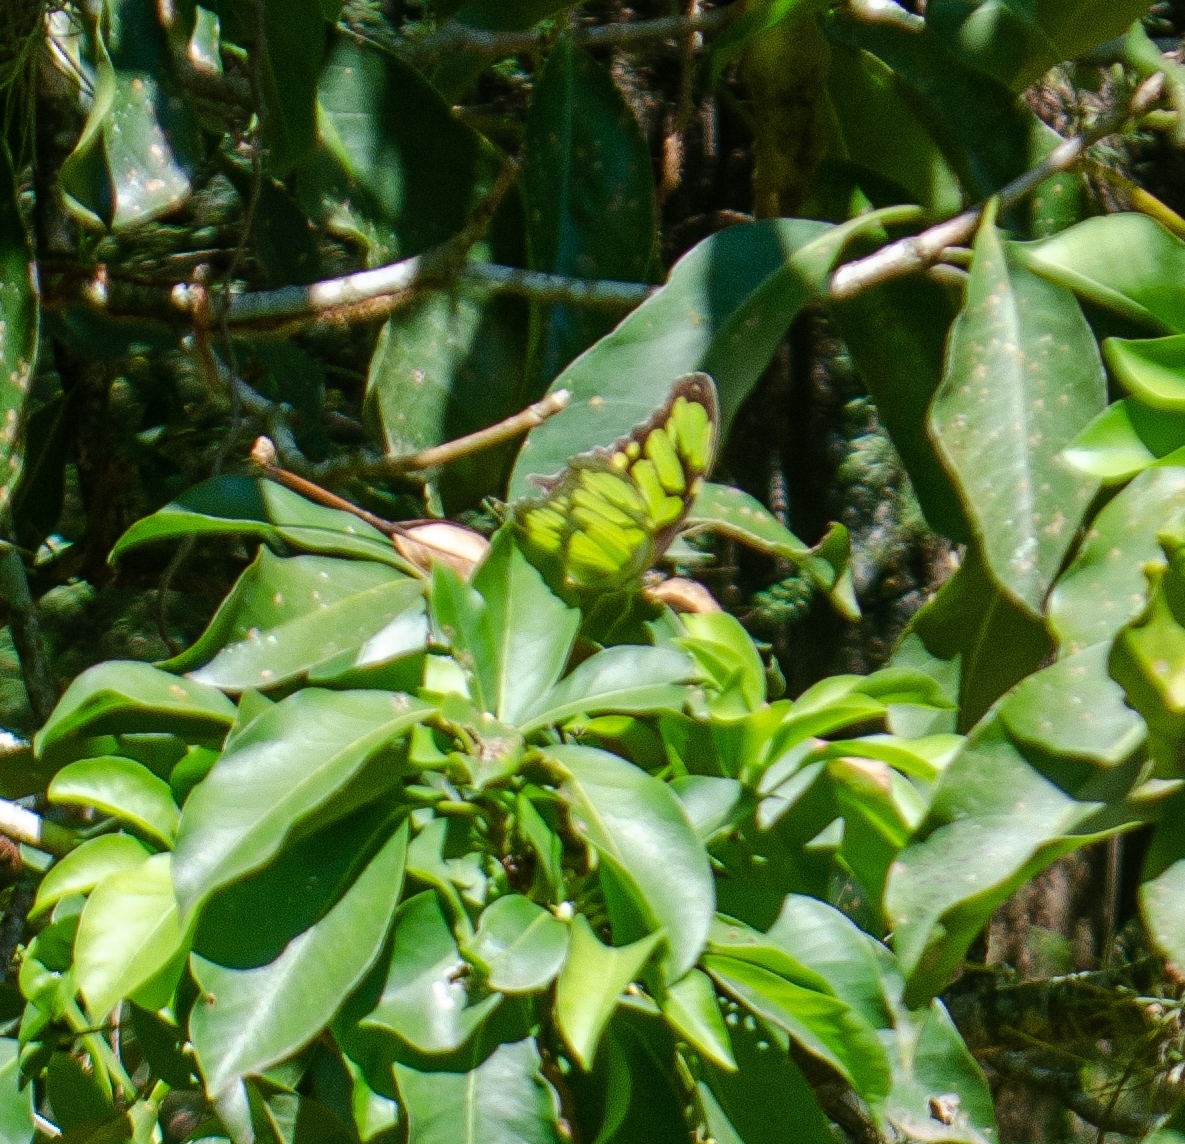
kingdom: Animalia
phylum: Arthropoda
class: Insecta
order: Lepidoptera
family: Nymphalidae
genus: Siproeta
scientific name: Siproeta stelenes
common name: Malachite
